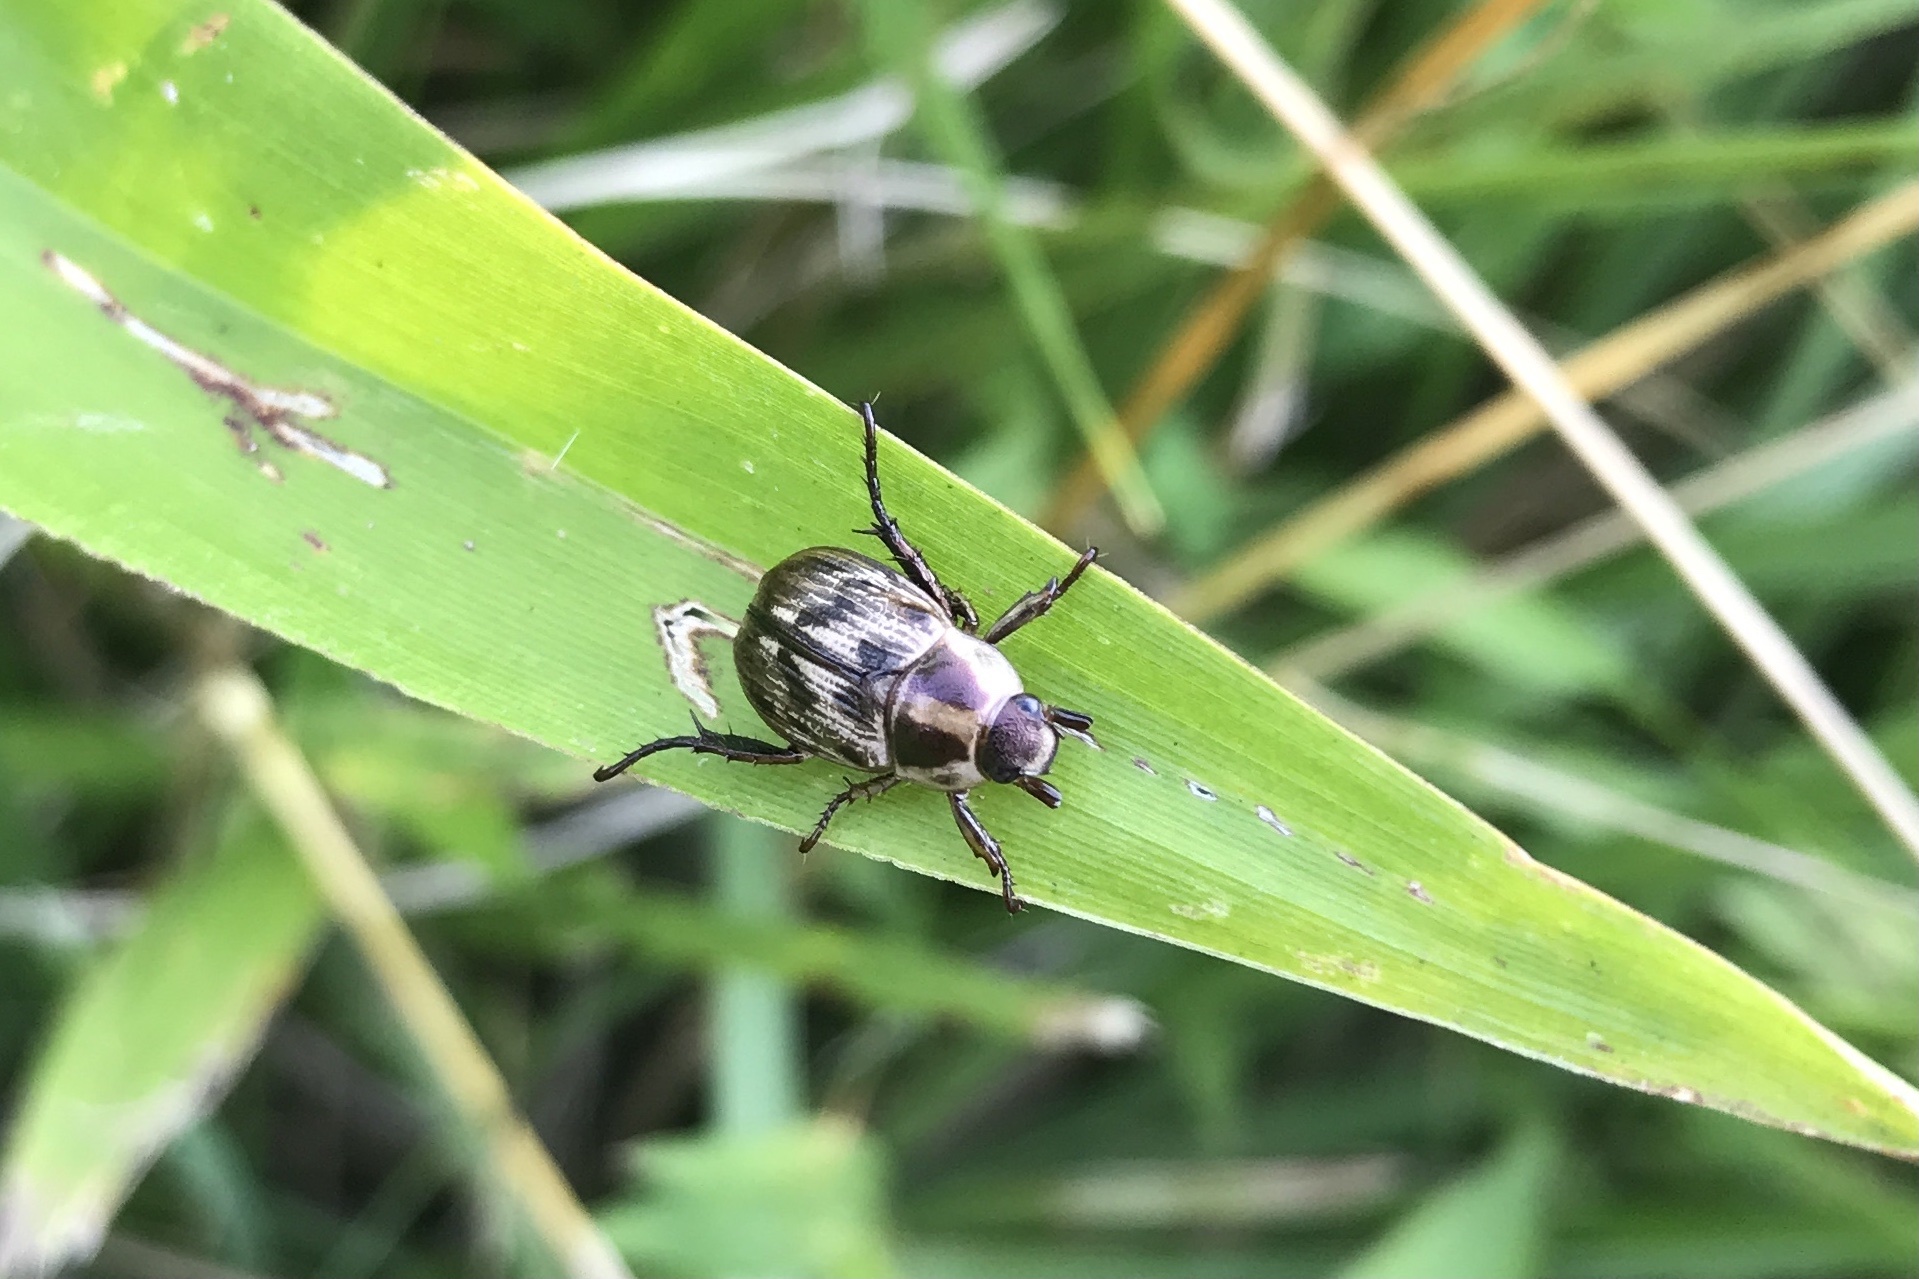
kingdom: Animalia
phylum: Arthropoda
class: Insecta
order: Coleoptera
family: Scarabaeidae
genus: Exomala
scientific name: Exomala orientalis
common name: Oriental beetle
